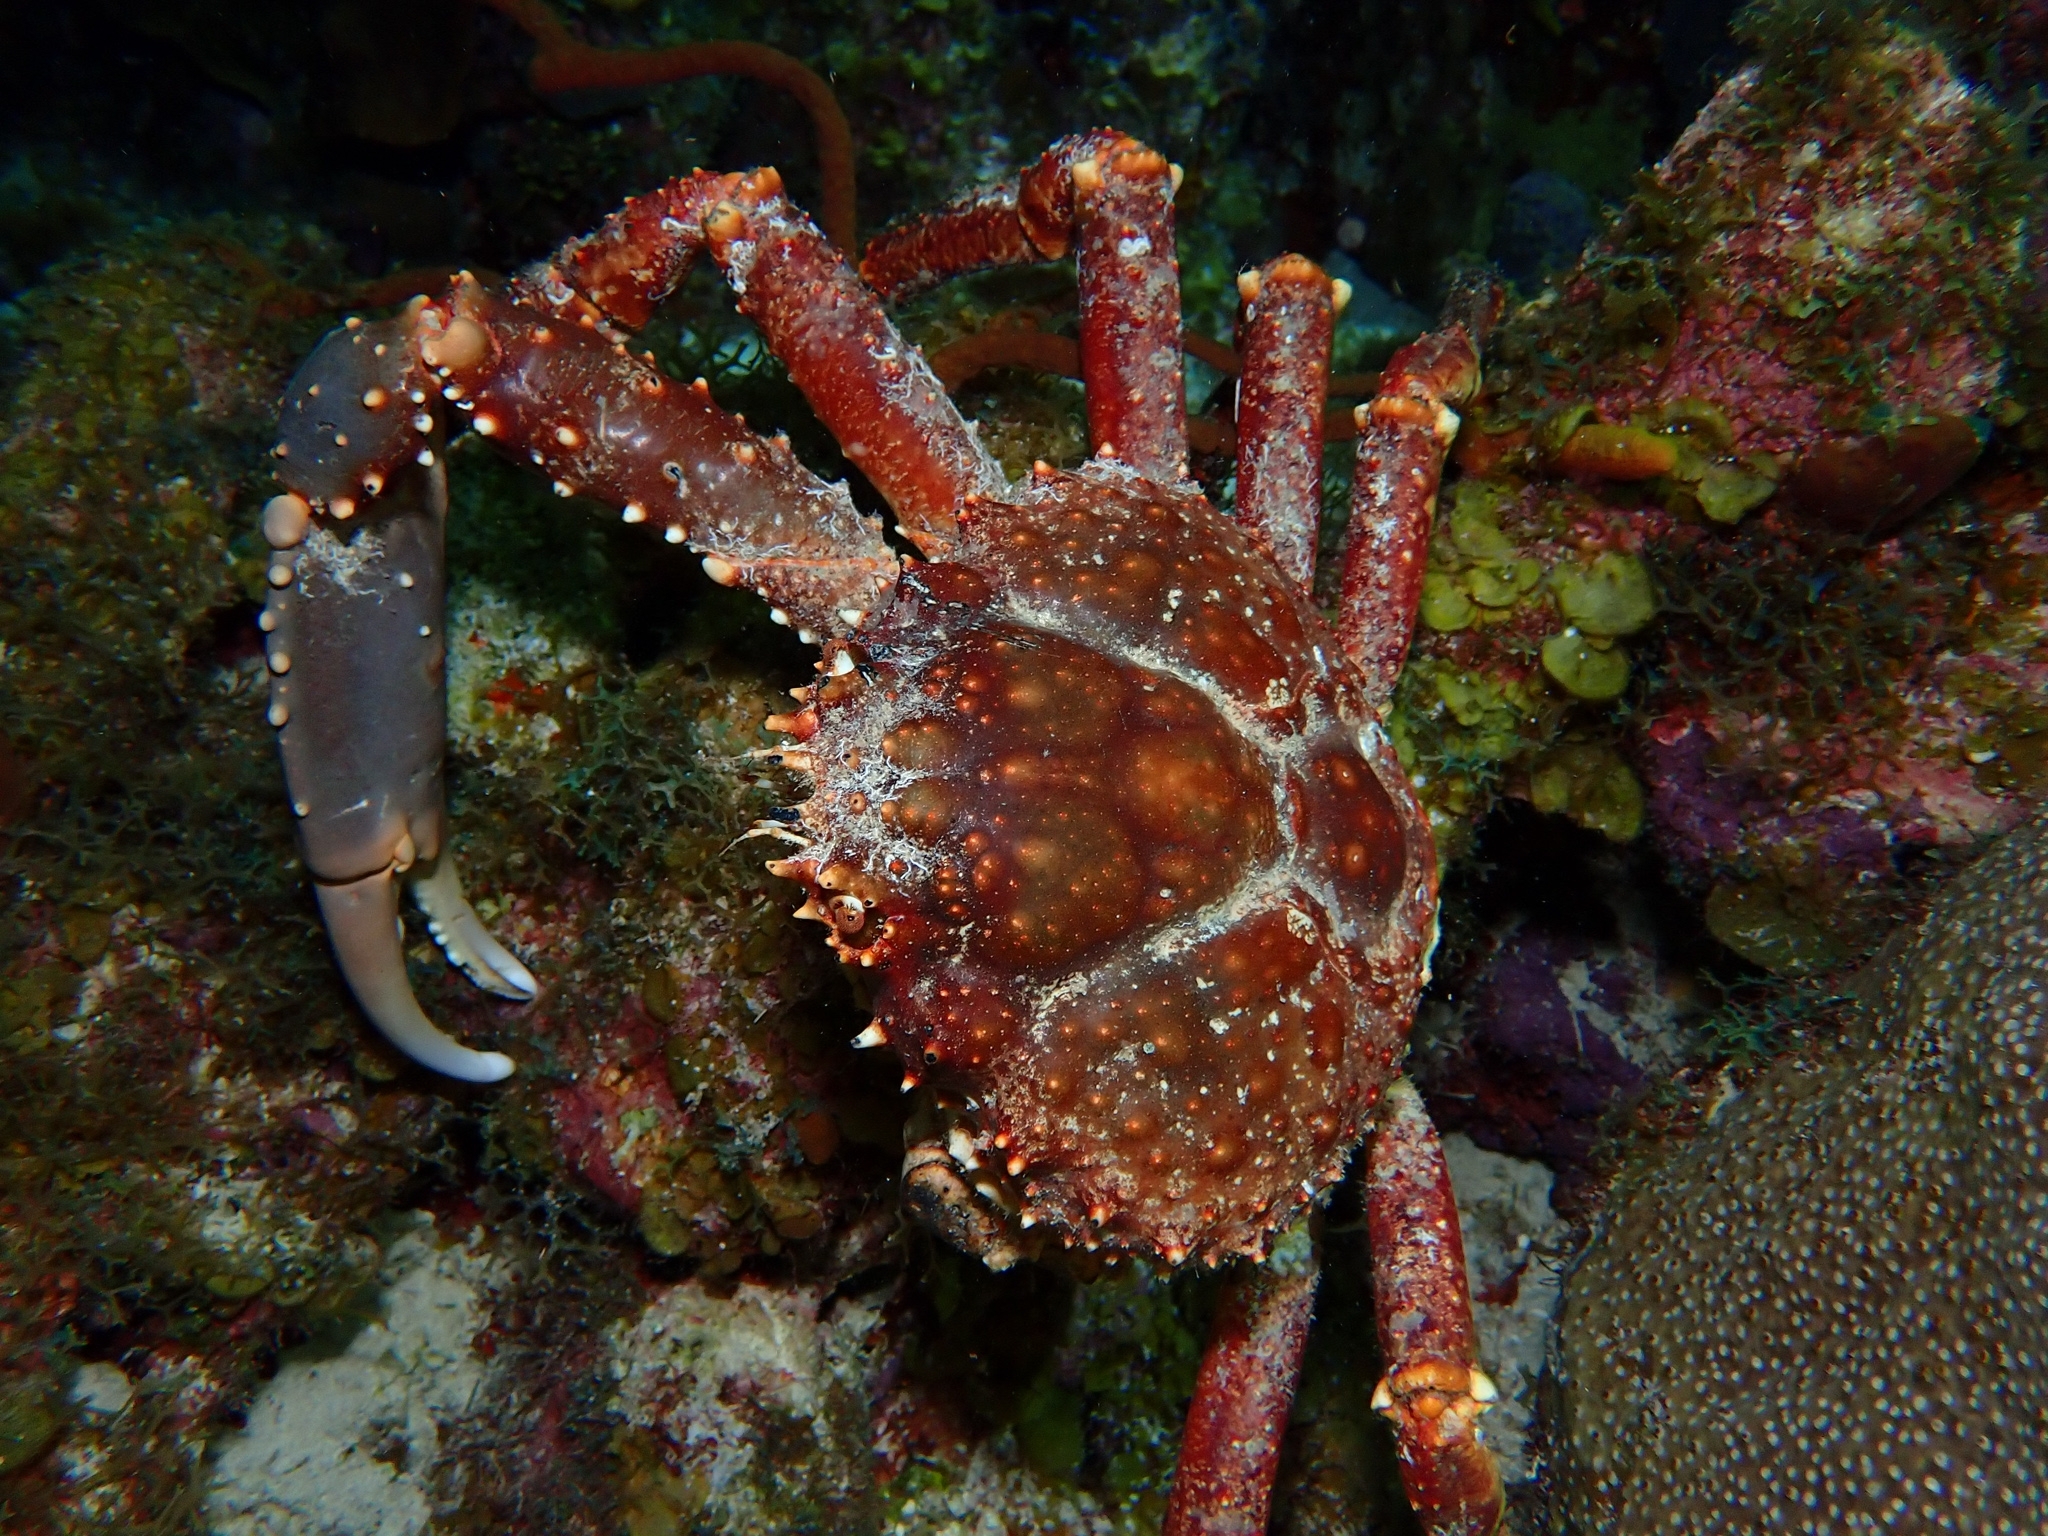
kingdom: Animalia
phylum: Arthropoda
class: Malacostraca
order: Decapoda
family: Mithracidae
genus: Maguimithrax
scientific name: Maguimithrax spinosissimus
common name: Spiny spider crab
